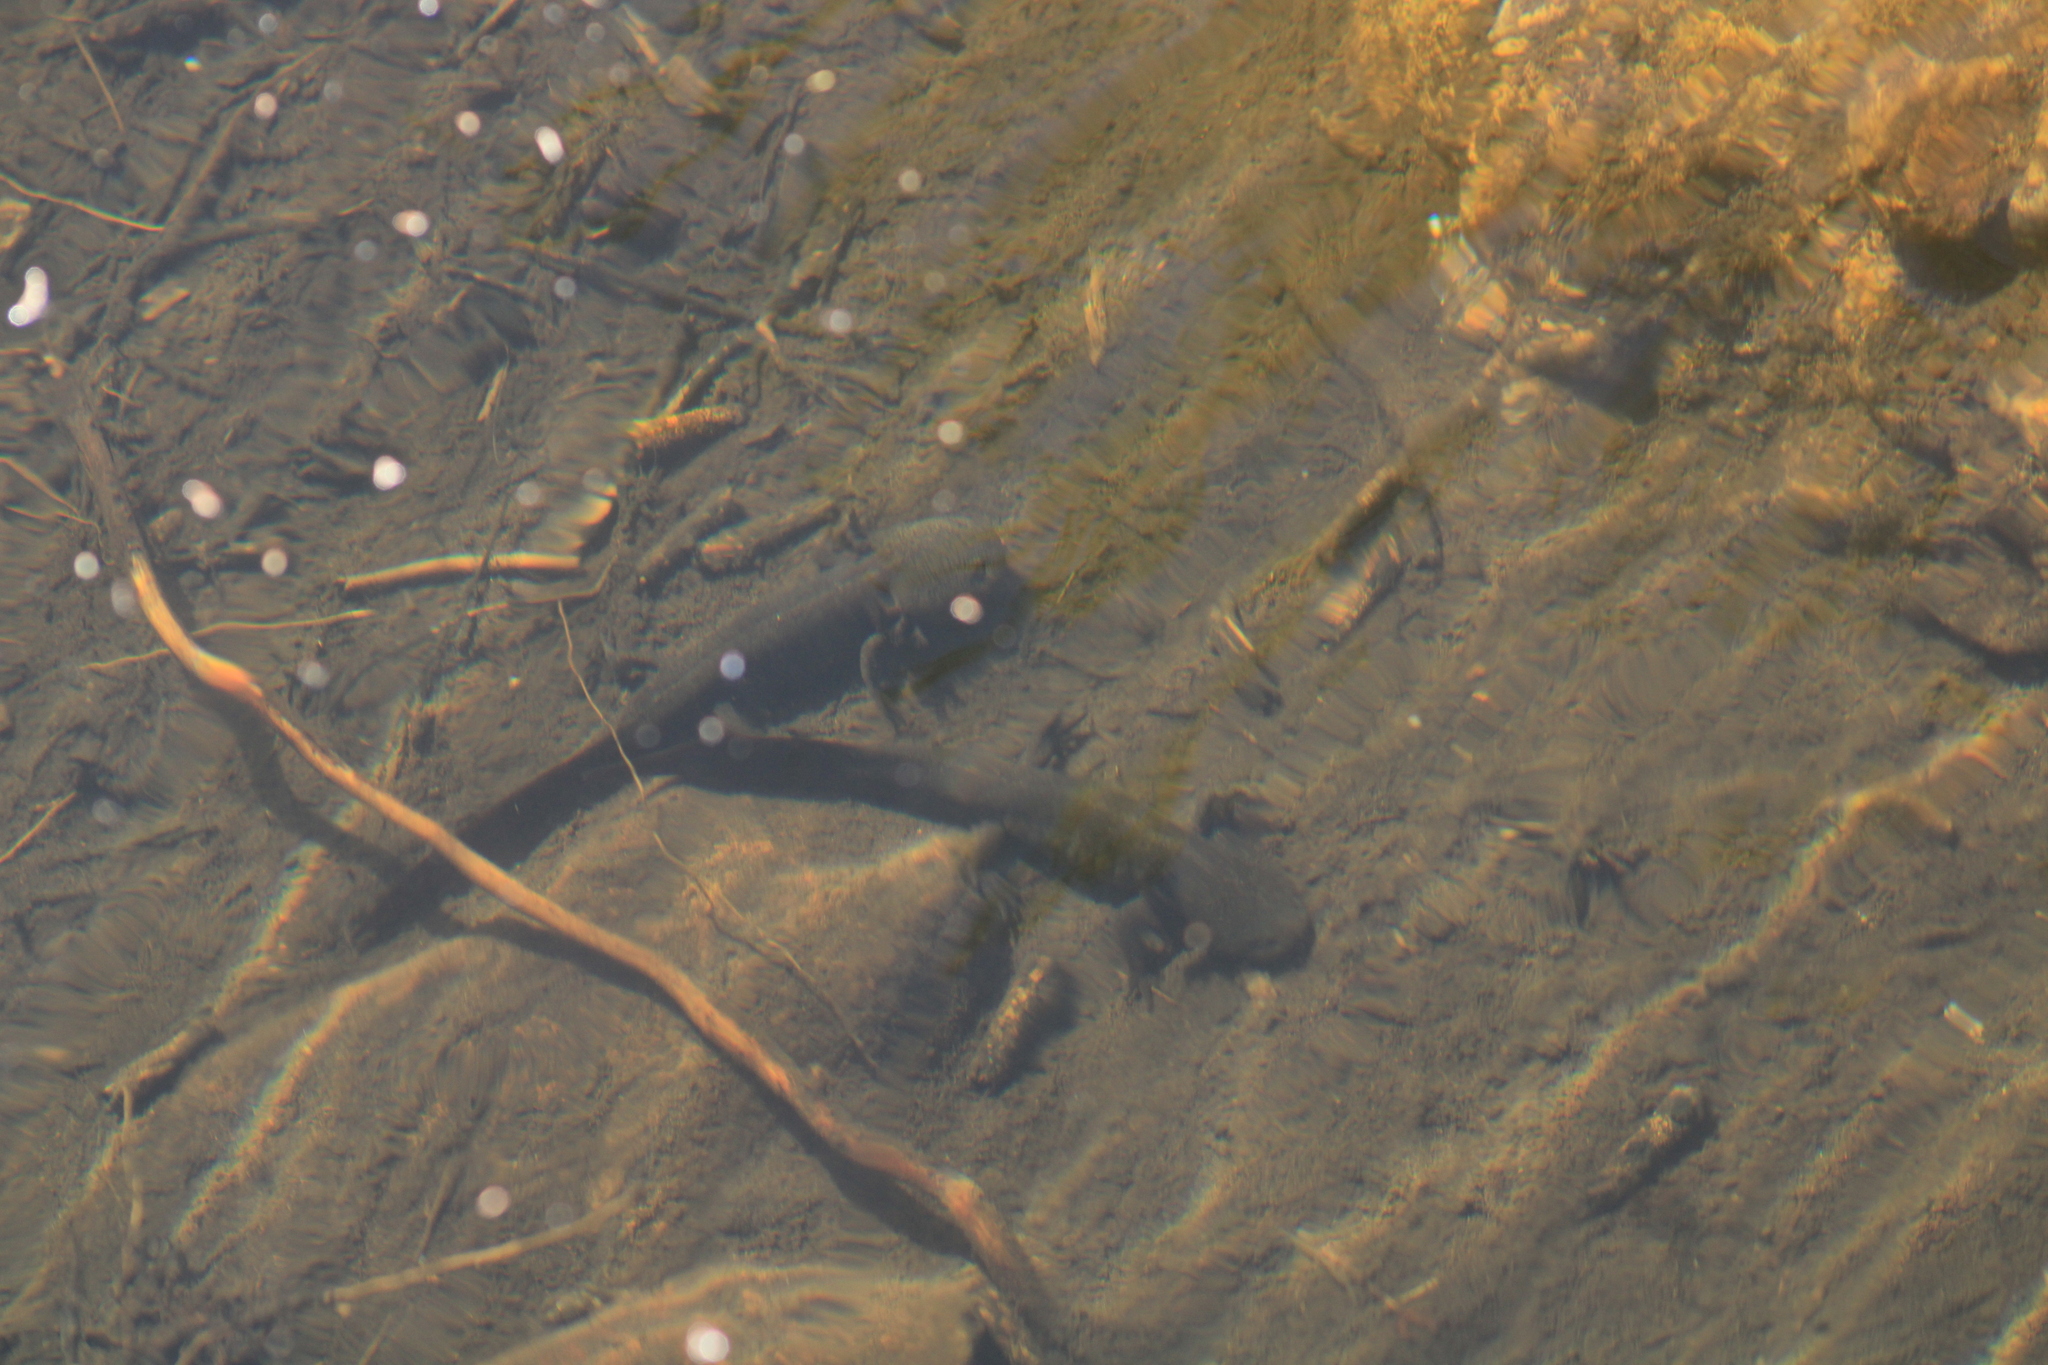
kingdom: Animalia
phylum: Chordata
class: Amphibia
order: Caudata
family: Ambystomatidae
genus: Ambystoma
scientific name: Ambystoma rivulare
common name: Michoacan stream salamander
